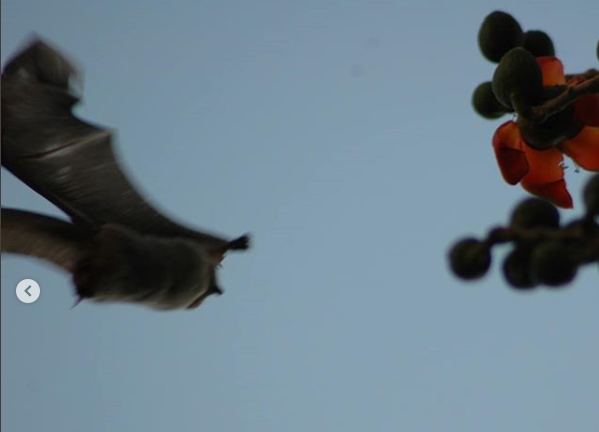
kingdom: Animalia
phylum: Chordata
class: Mammalia
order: Chiroptera
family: Pteropodidae
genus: Rousettus
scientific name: Rousettus aegyptiacus
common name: Egyptian rousette
